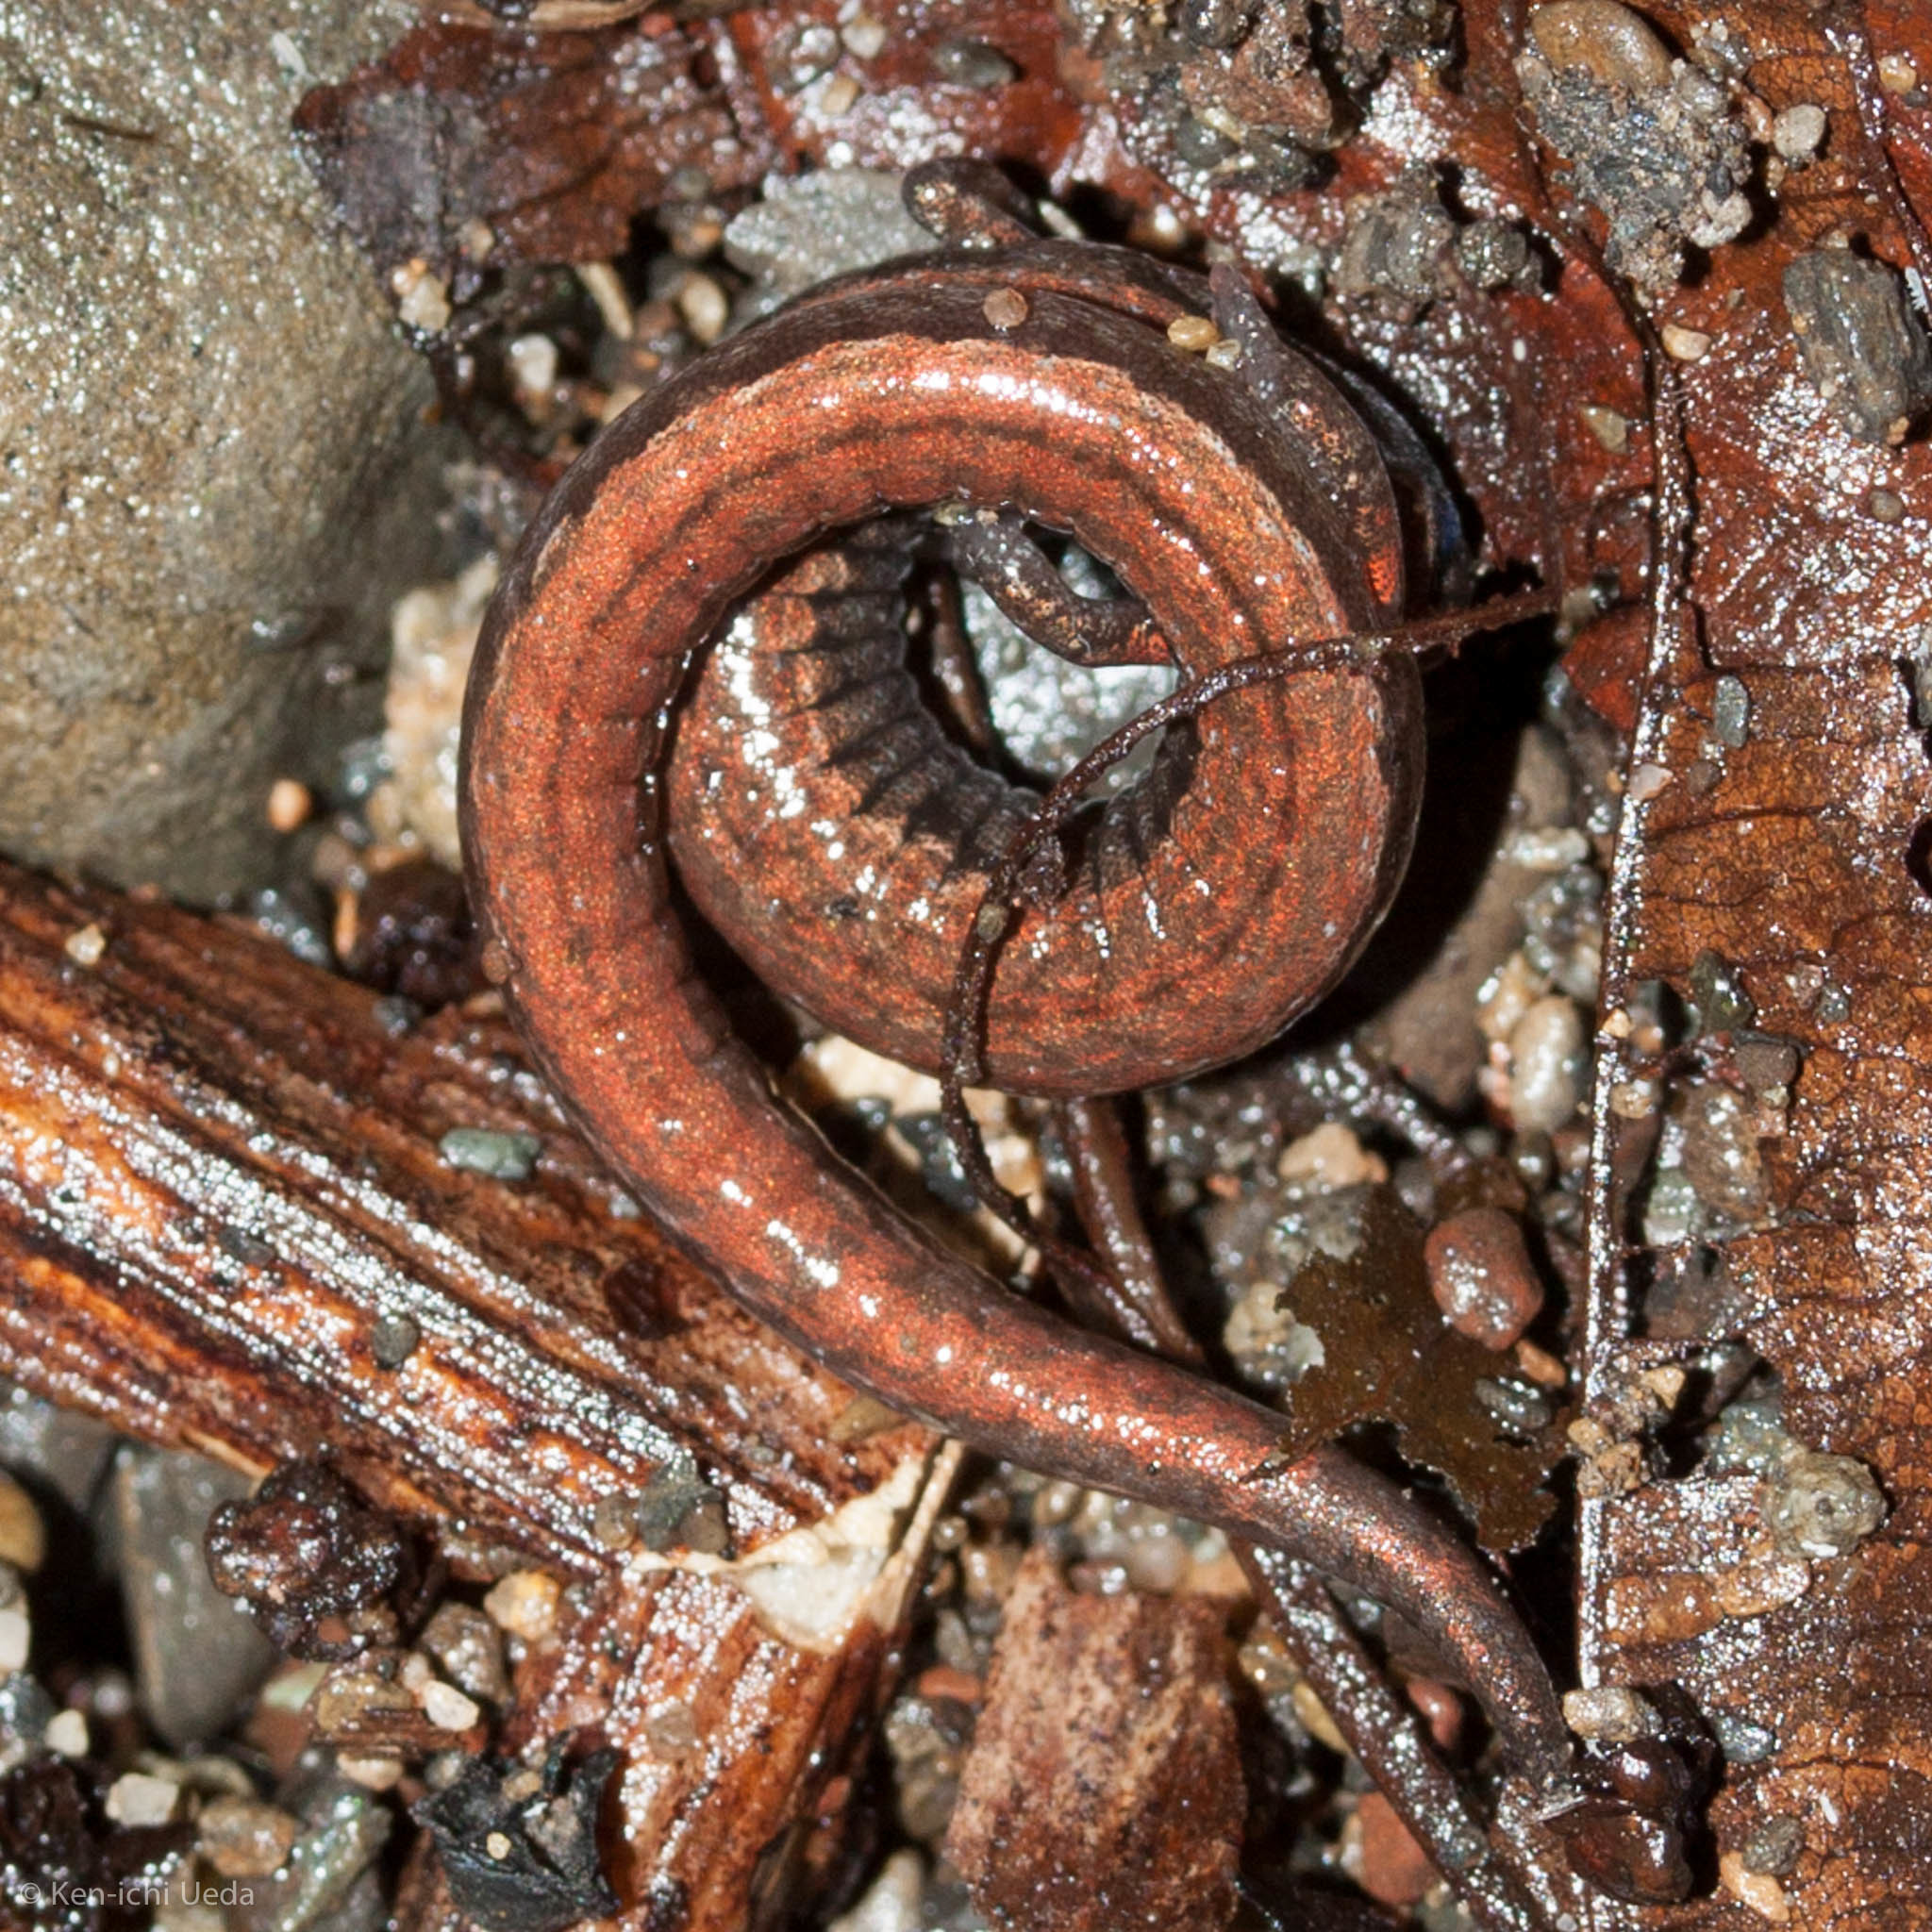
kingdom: Animalia
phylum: Chordata
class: Amphibia
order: Caudata
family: Plethodontidae
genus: Batrachoseps
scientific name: Batrachoseps attenuatus
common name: California slender salamander
